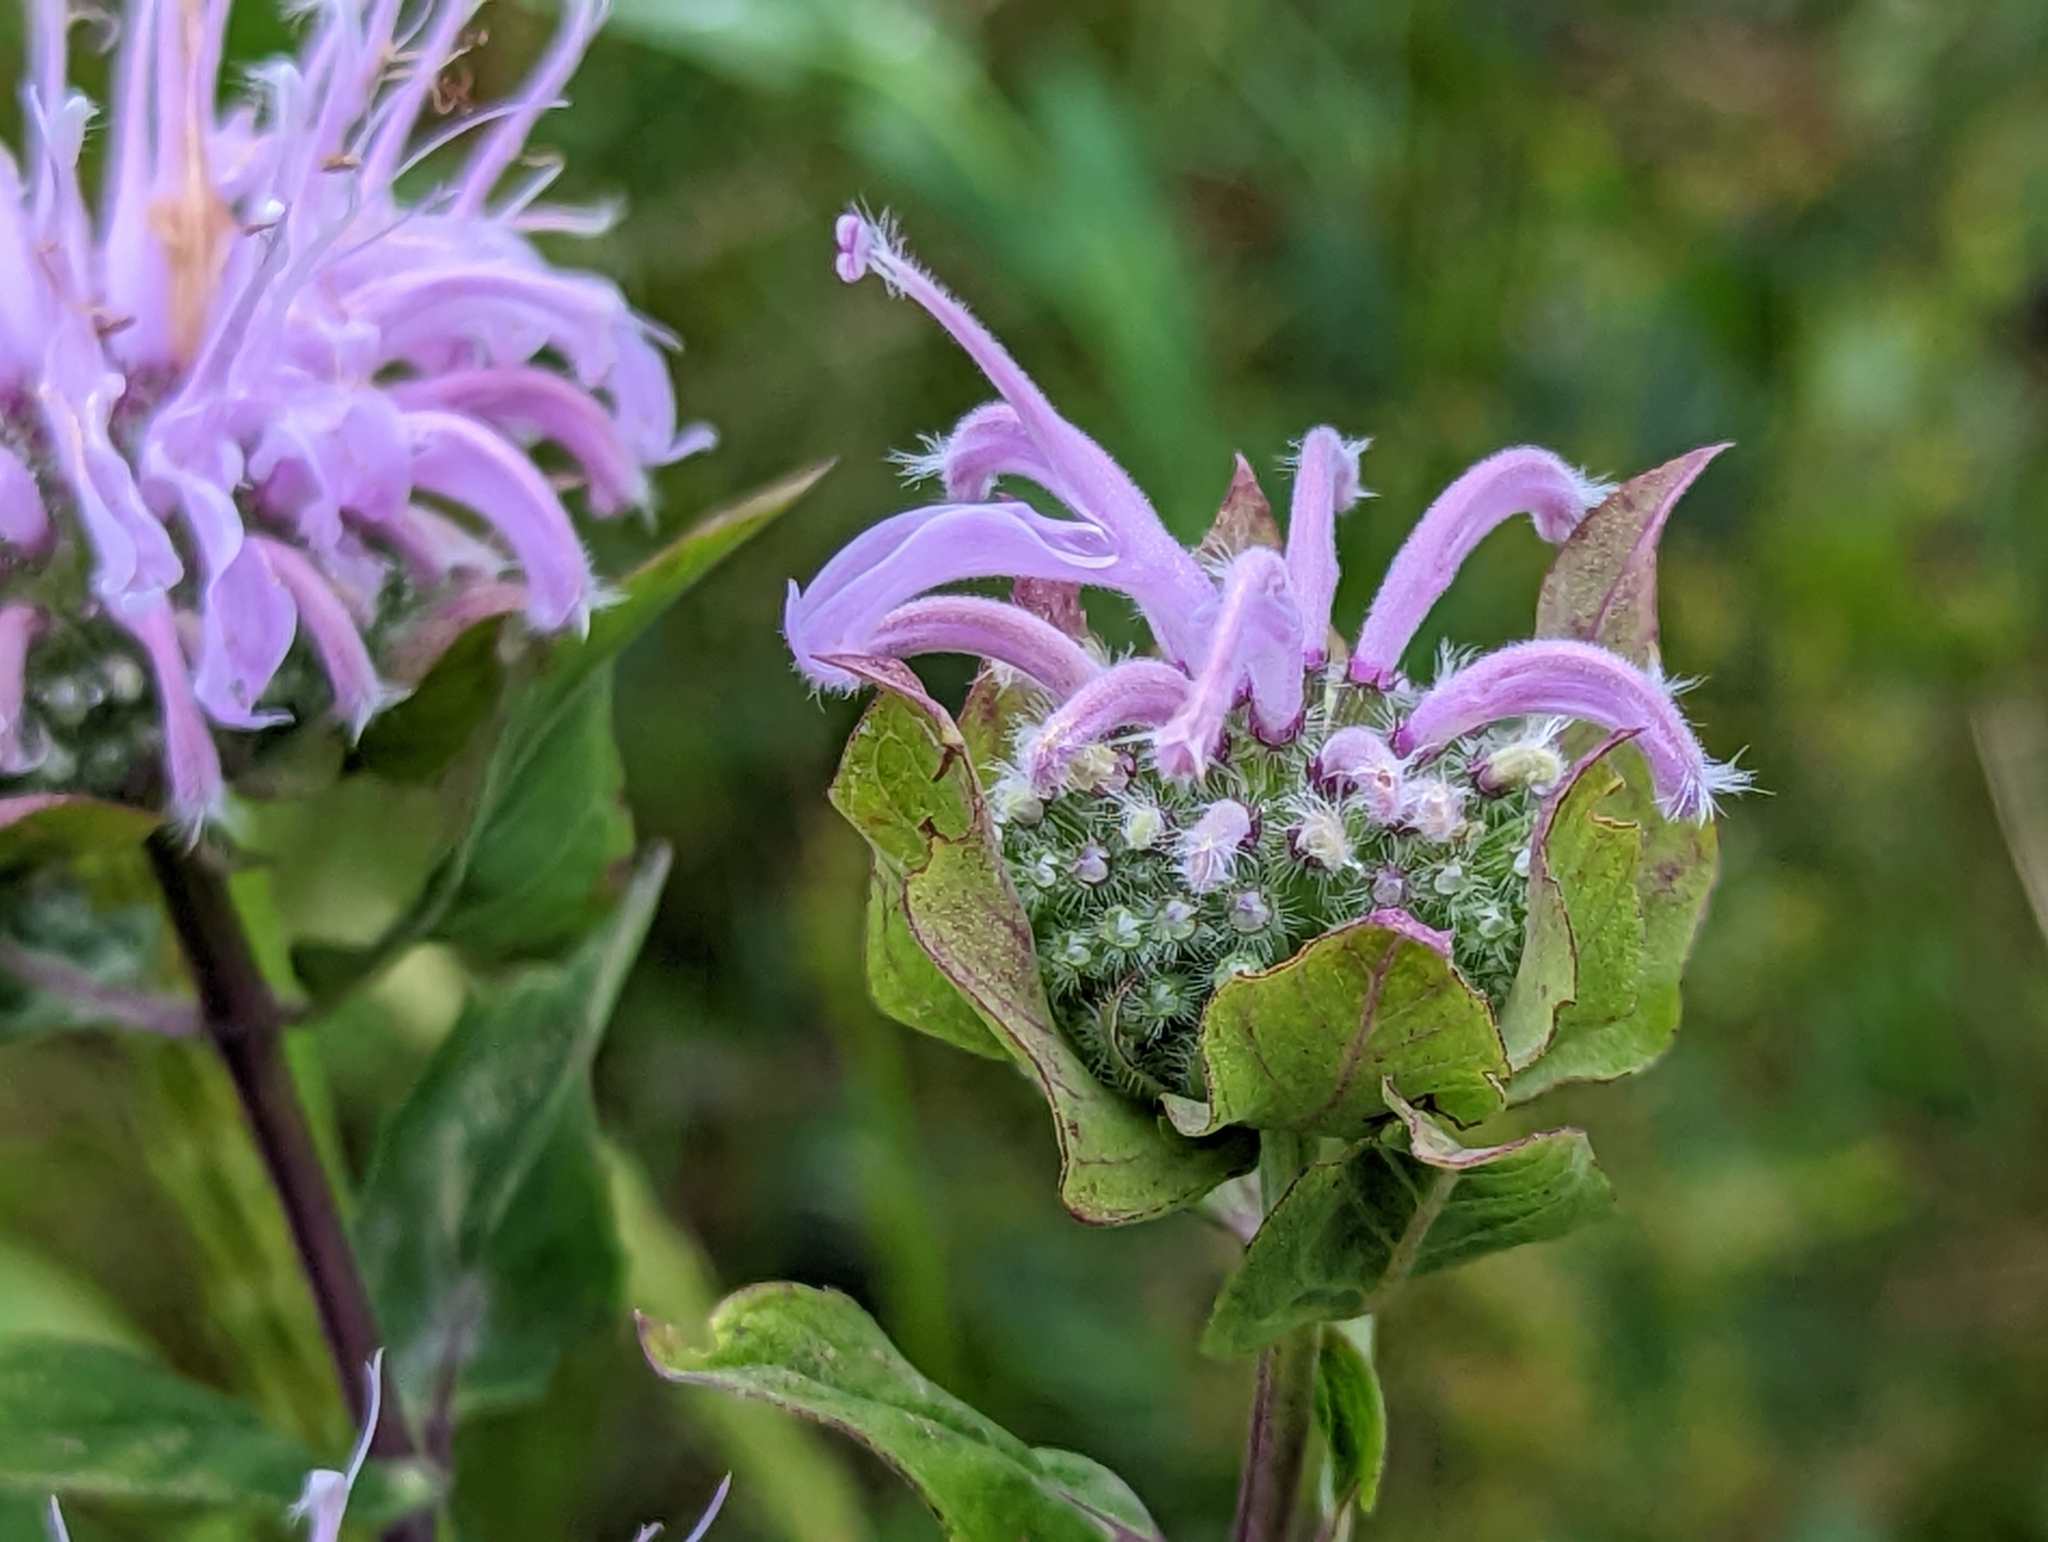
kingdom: Plantae
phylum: Tracheophyta
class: Magnoliopsida
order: Lamiales
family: Lamiaceae
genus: Monarda
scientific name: Monarda fistulosa
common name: Purple beebalm
